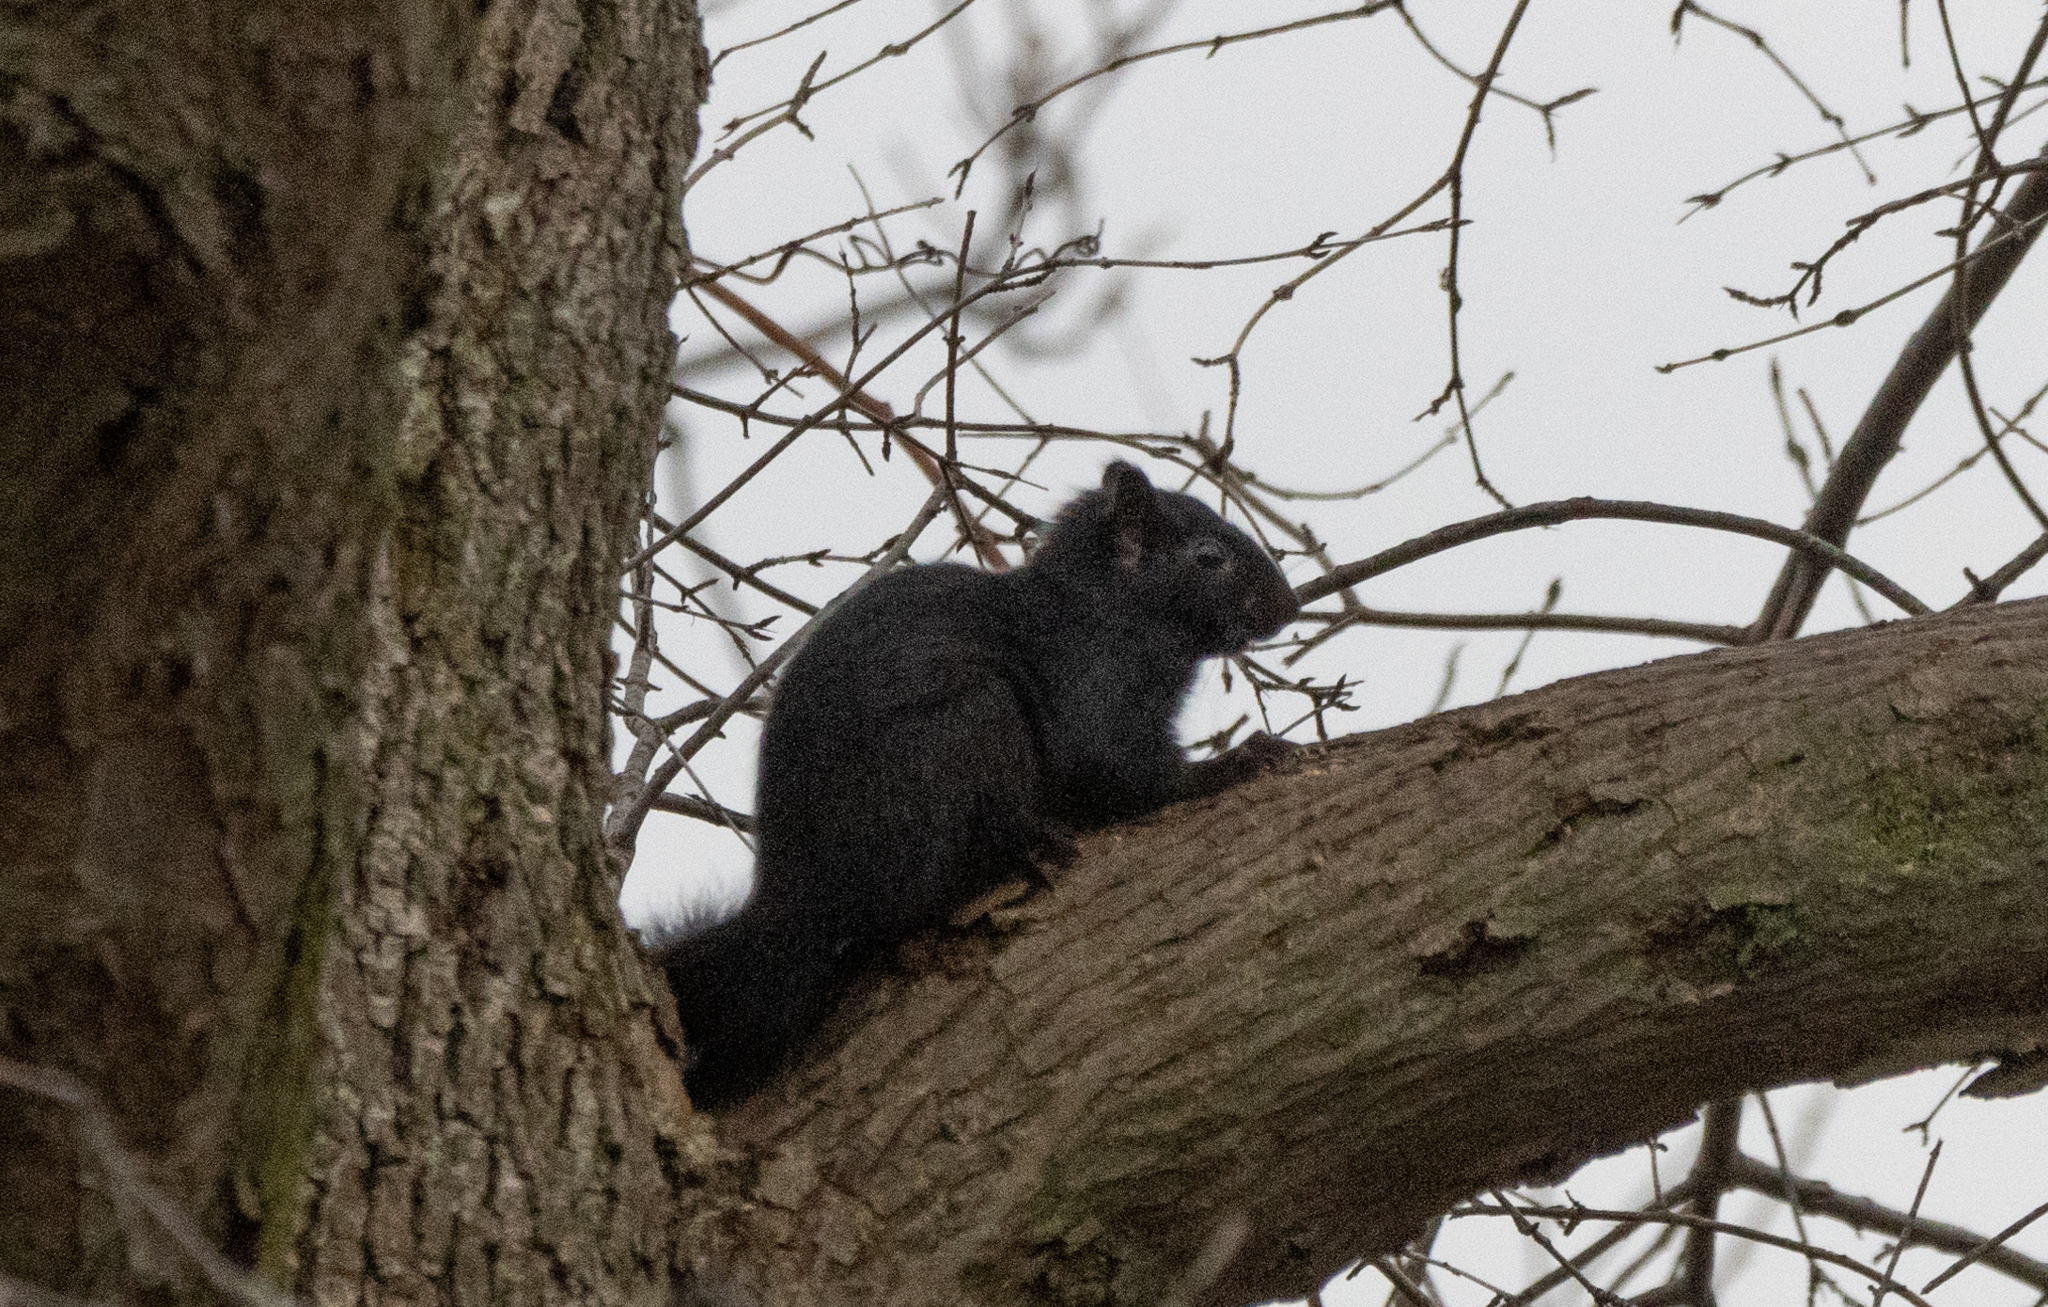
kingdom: Animalia
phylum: Chordata
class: Mammalia
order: Rodentia
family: Sciuridae
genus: Sciurus
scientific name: Sciurus carolinensis
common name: Eastern gray squirrel
